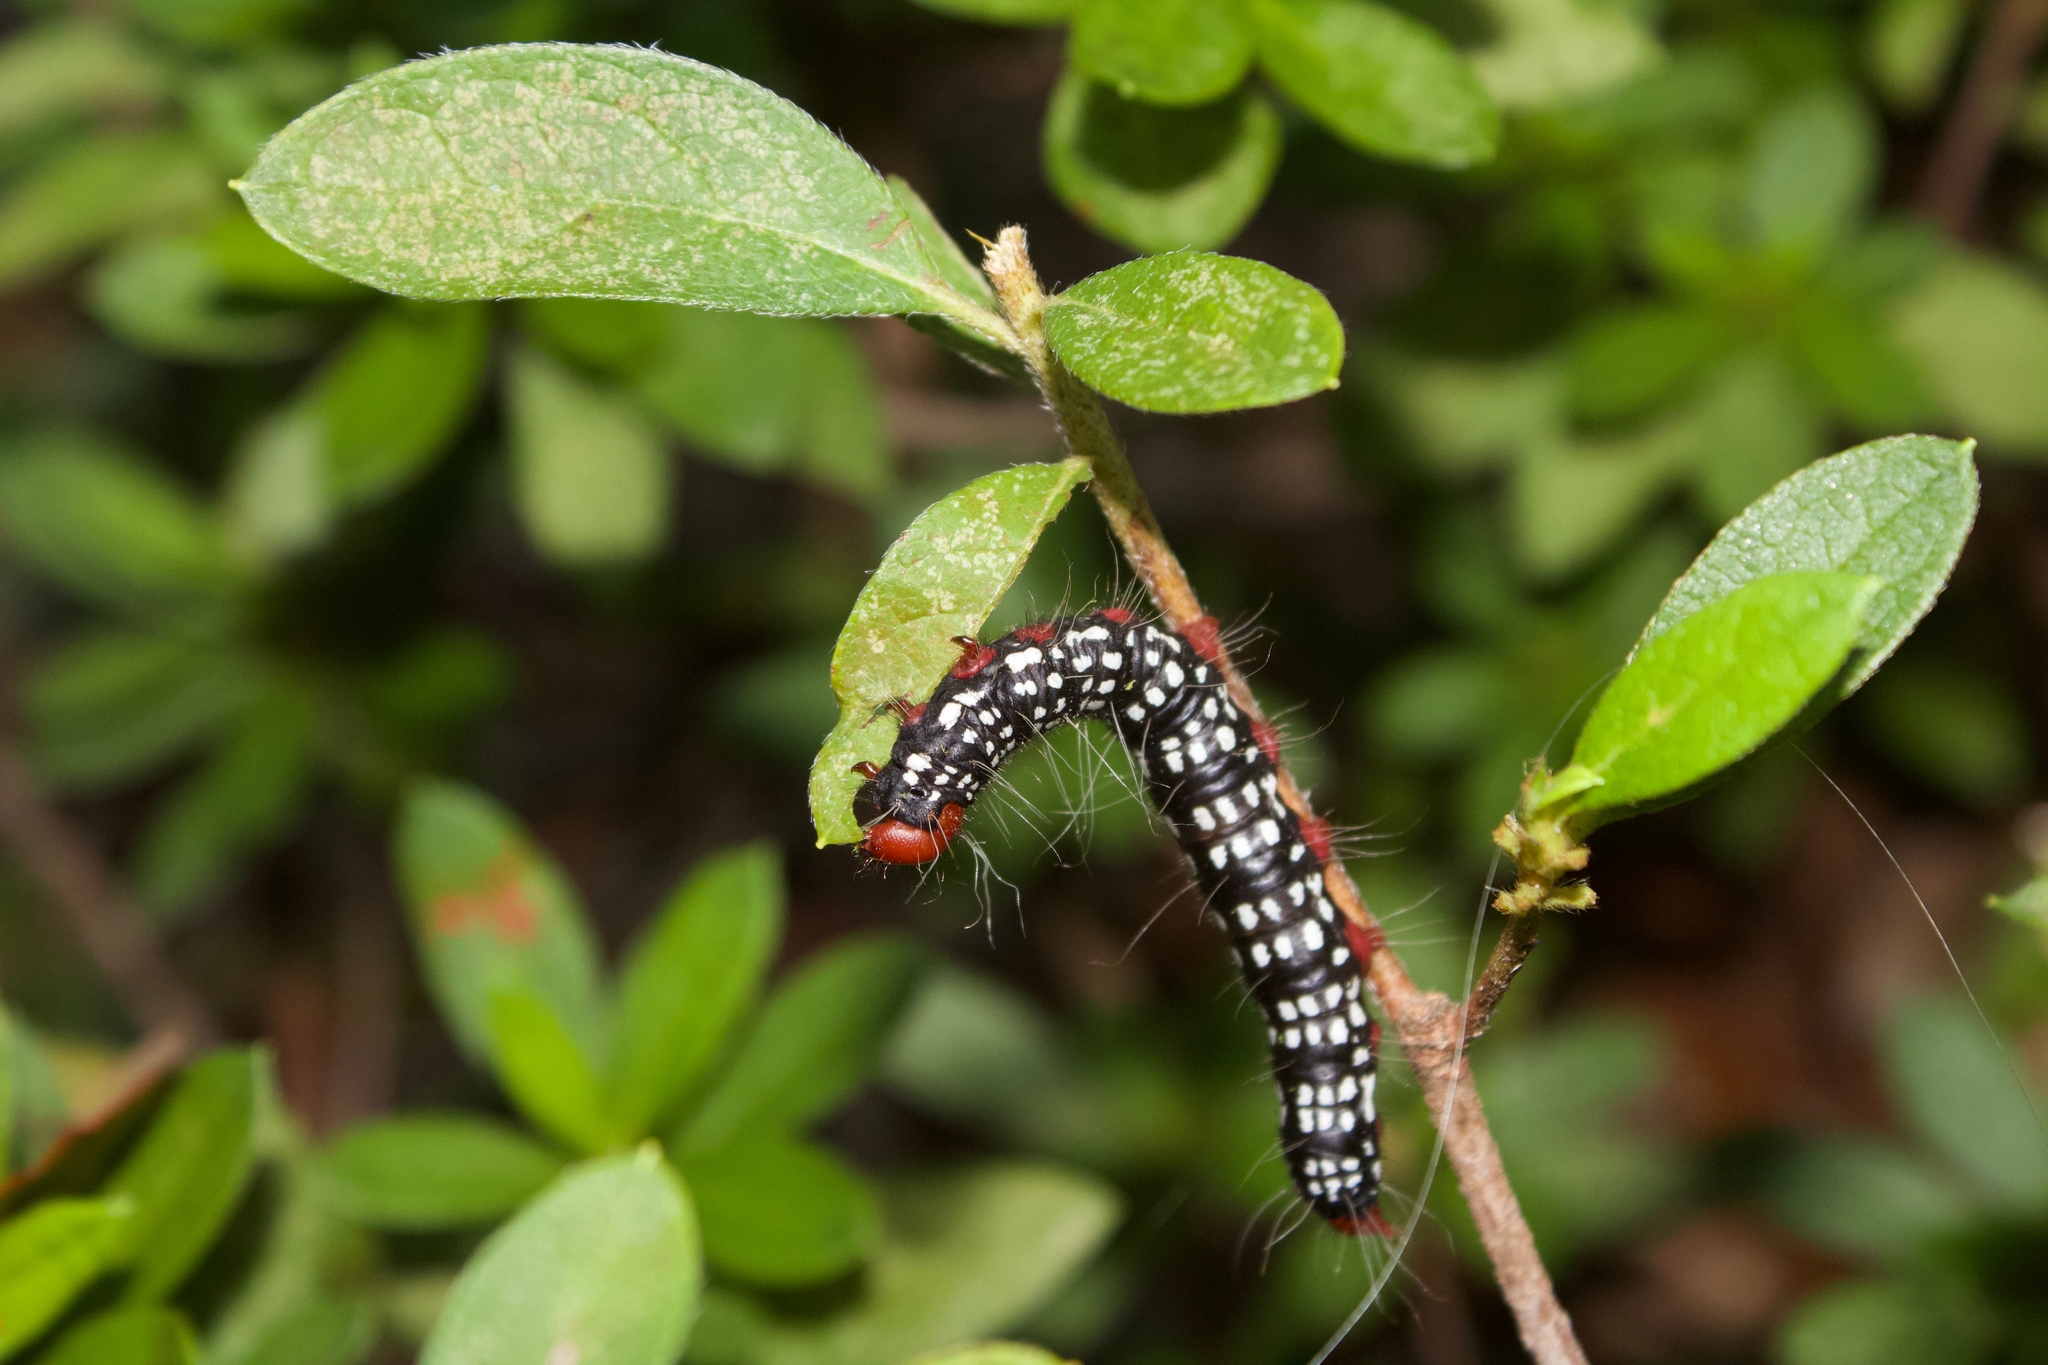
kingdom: Animalia
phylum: Arthropoda
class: Insecta
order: Lepidoptera
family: Notodontidae
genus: Datana
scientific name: Datana major
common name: Azalea caterpillar
